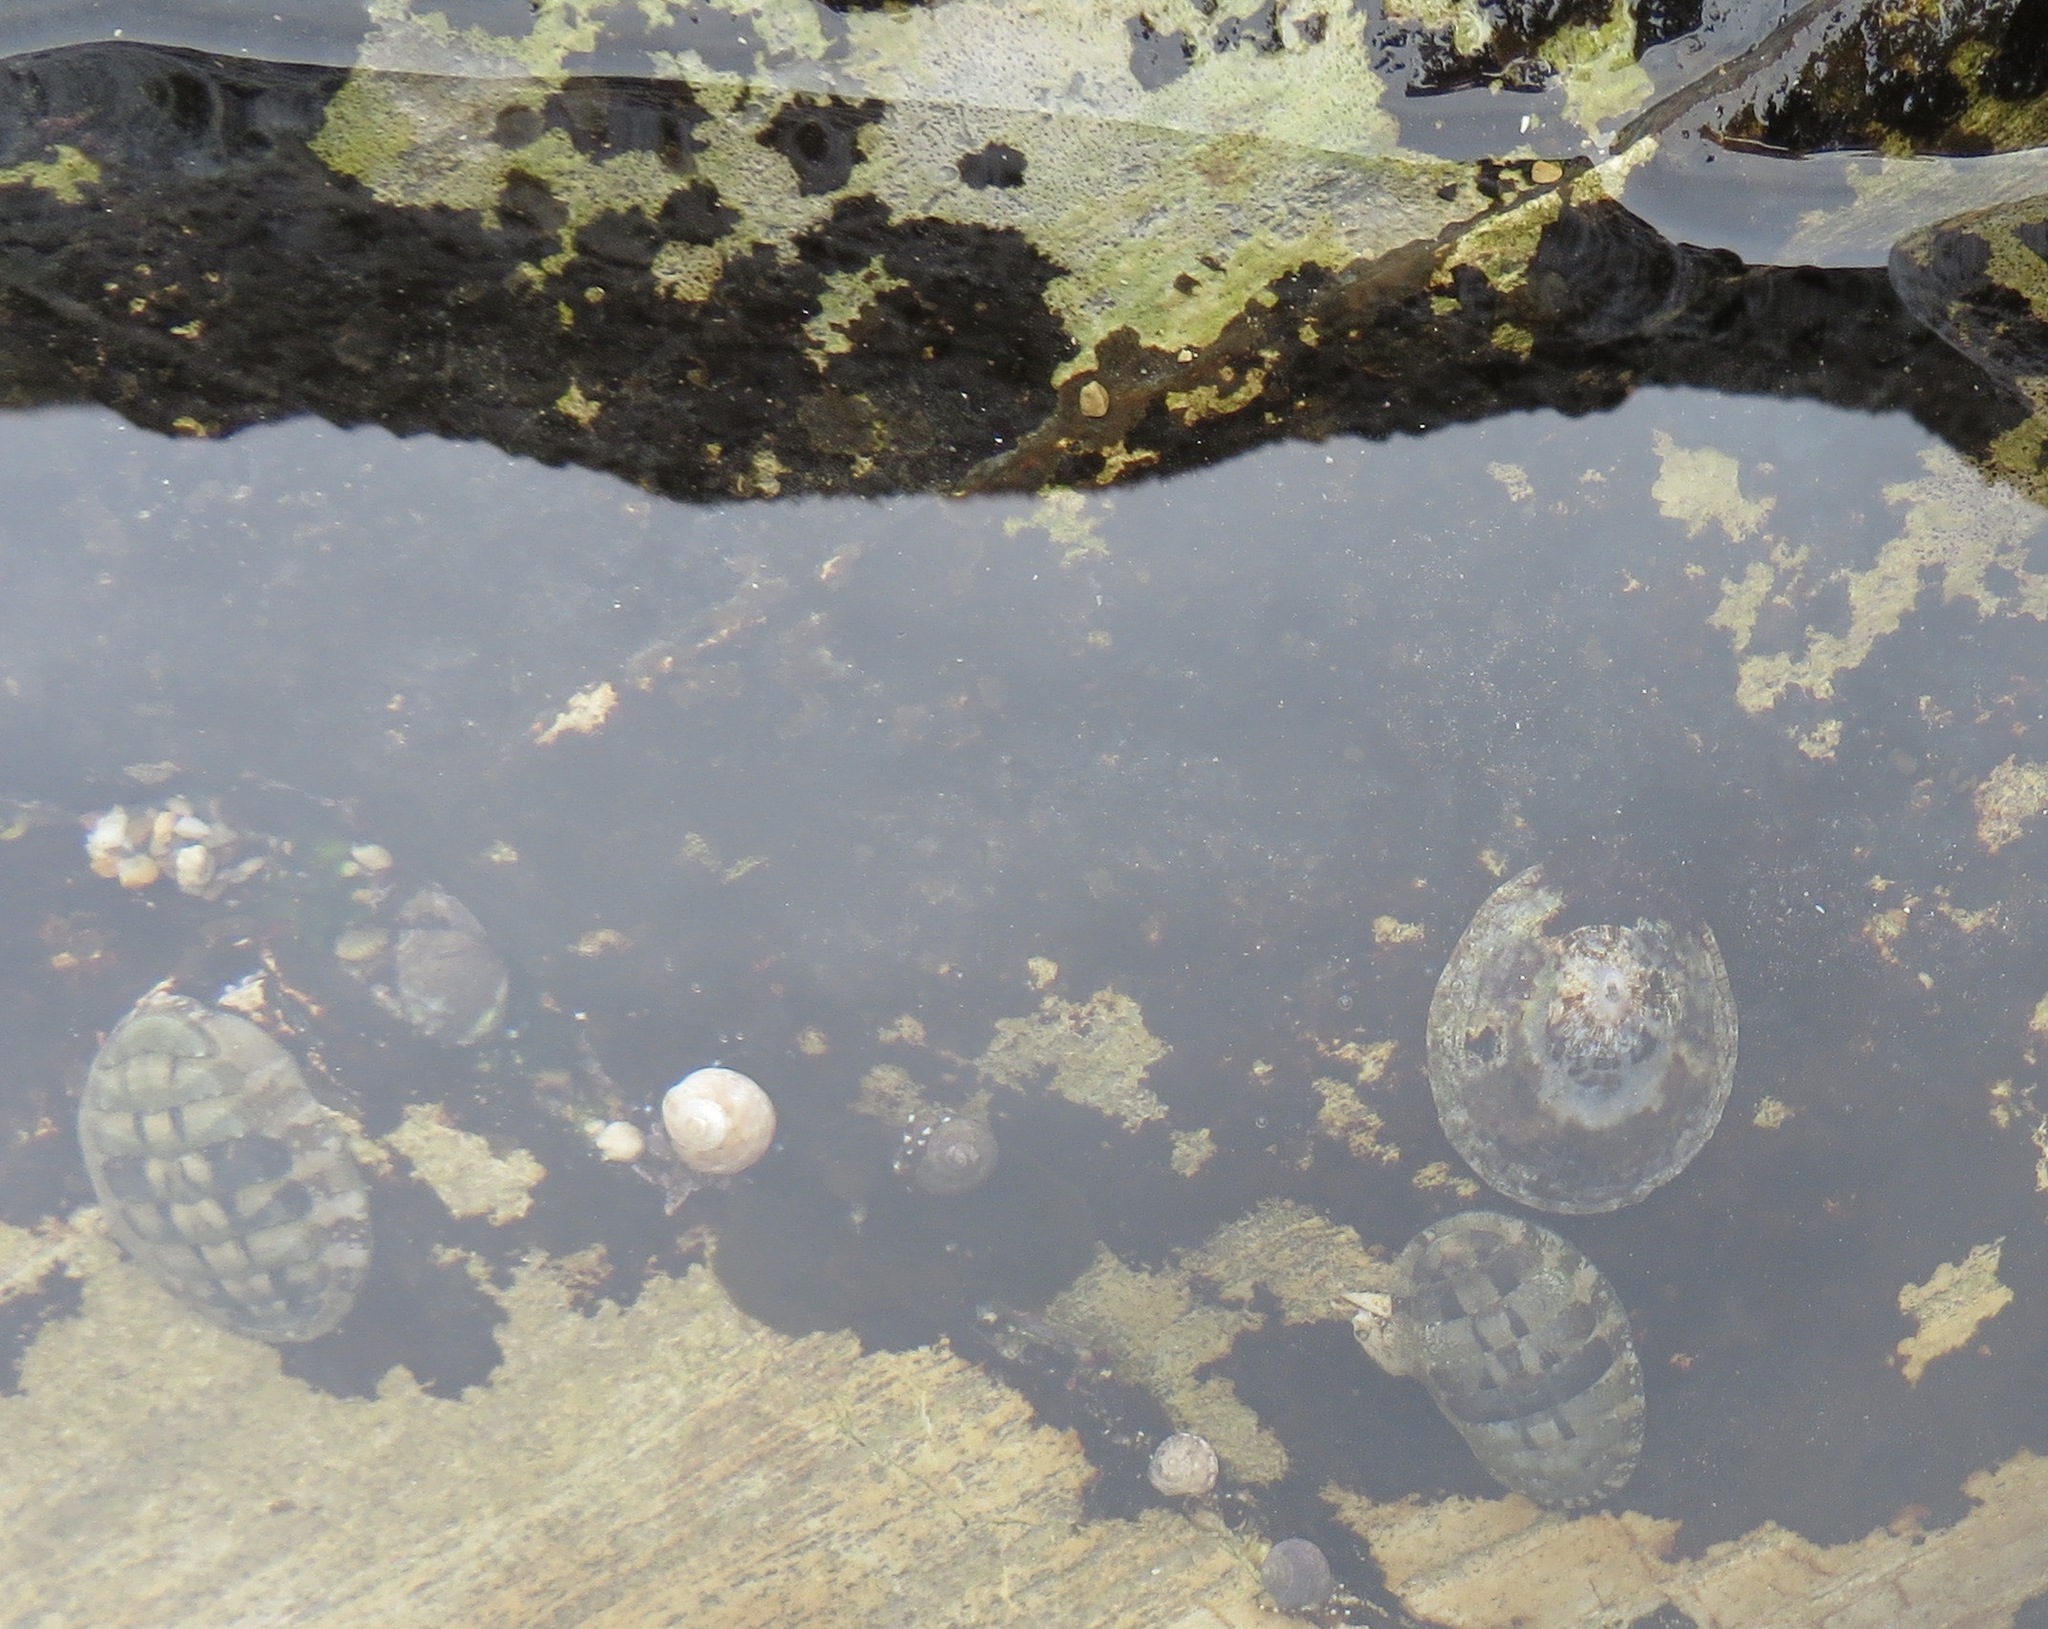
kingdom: Animalia
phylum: Mollusca
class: Polyplacophora
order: Chitonida
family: Tonicellidae
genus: Cyanoplax
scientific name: Cyanoplax hartwegii
